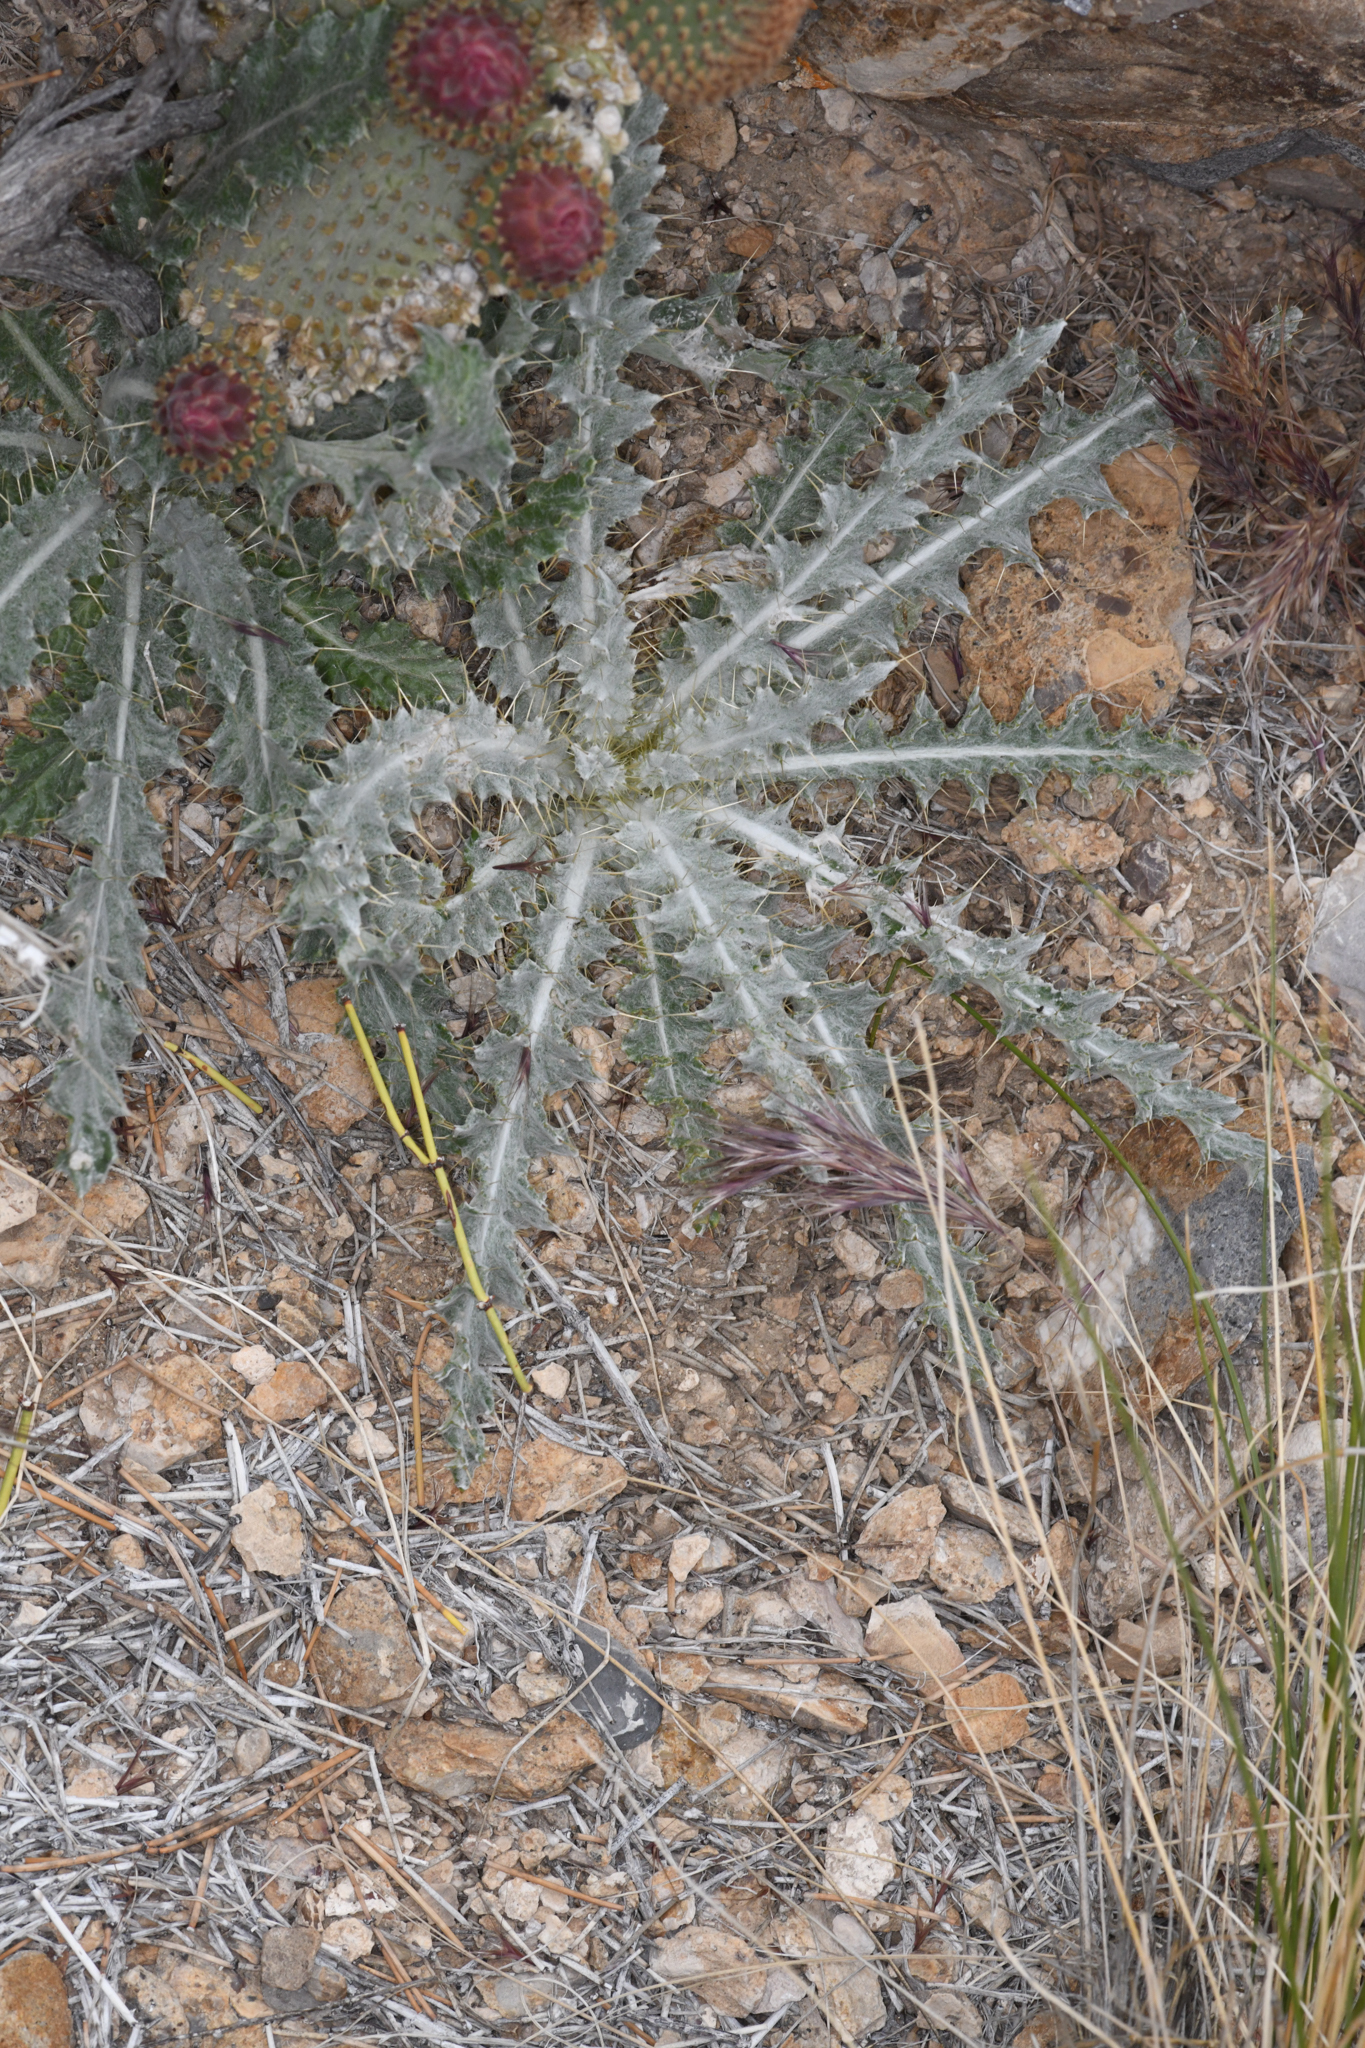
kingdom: Plantae
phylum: Tracheophyta
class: Magnoliopsida
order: Asterales
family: Asteraceae
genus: Cirsium
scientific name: Cirsium occidentale
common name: Western thistle
